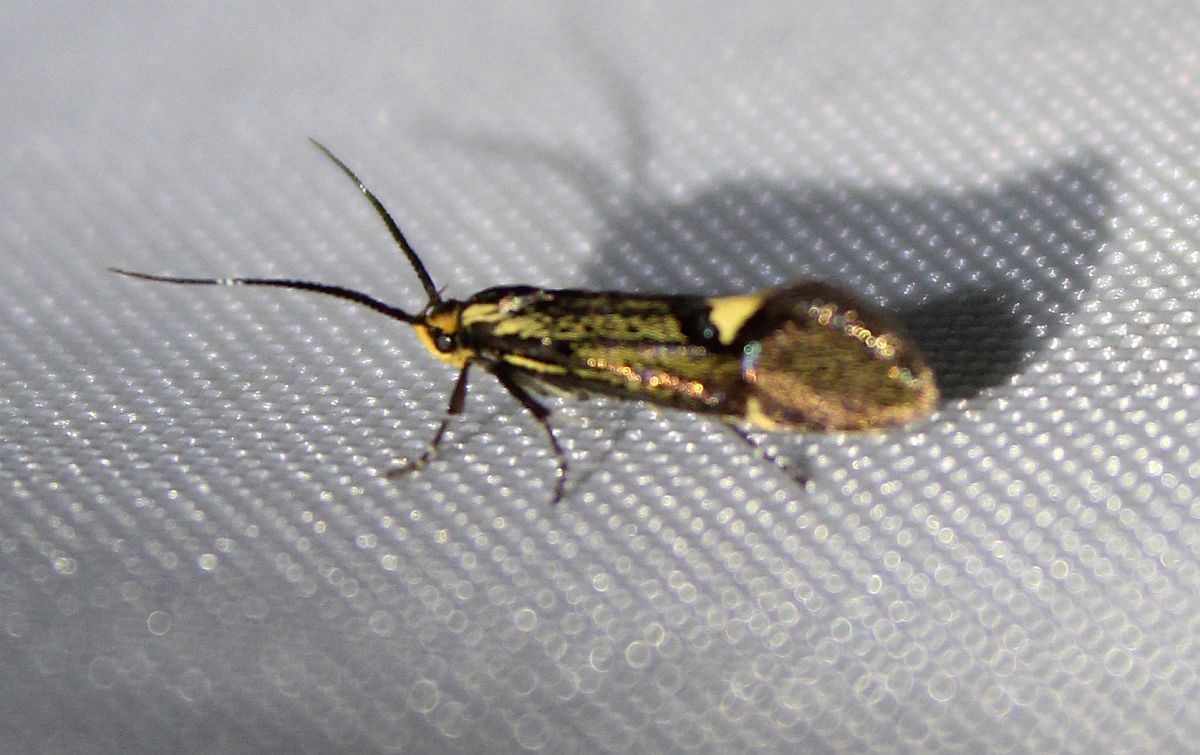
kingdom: Animalia
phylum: Arthropoda
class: Insecta
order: Lepidoptera
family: Oecophoridae
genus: Dafa
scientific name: Dafa Esperia sulphurella
